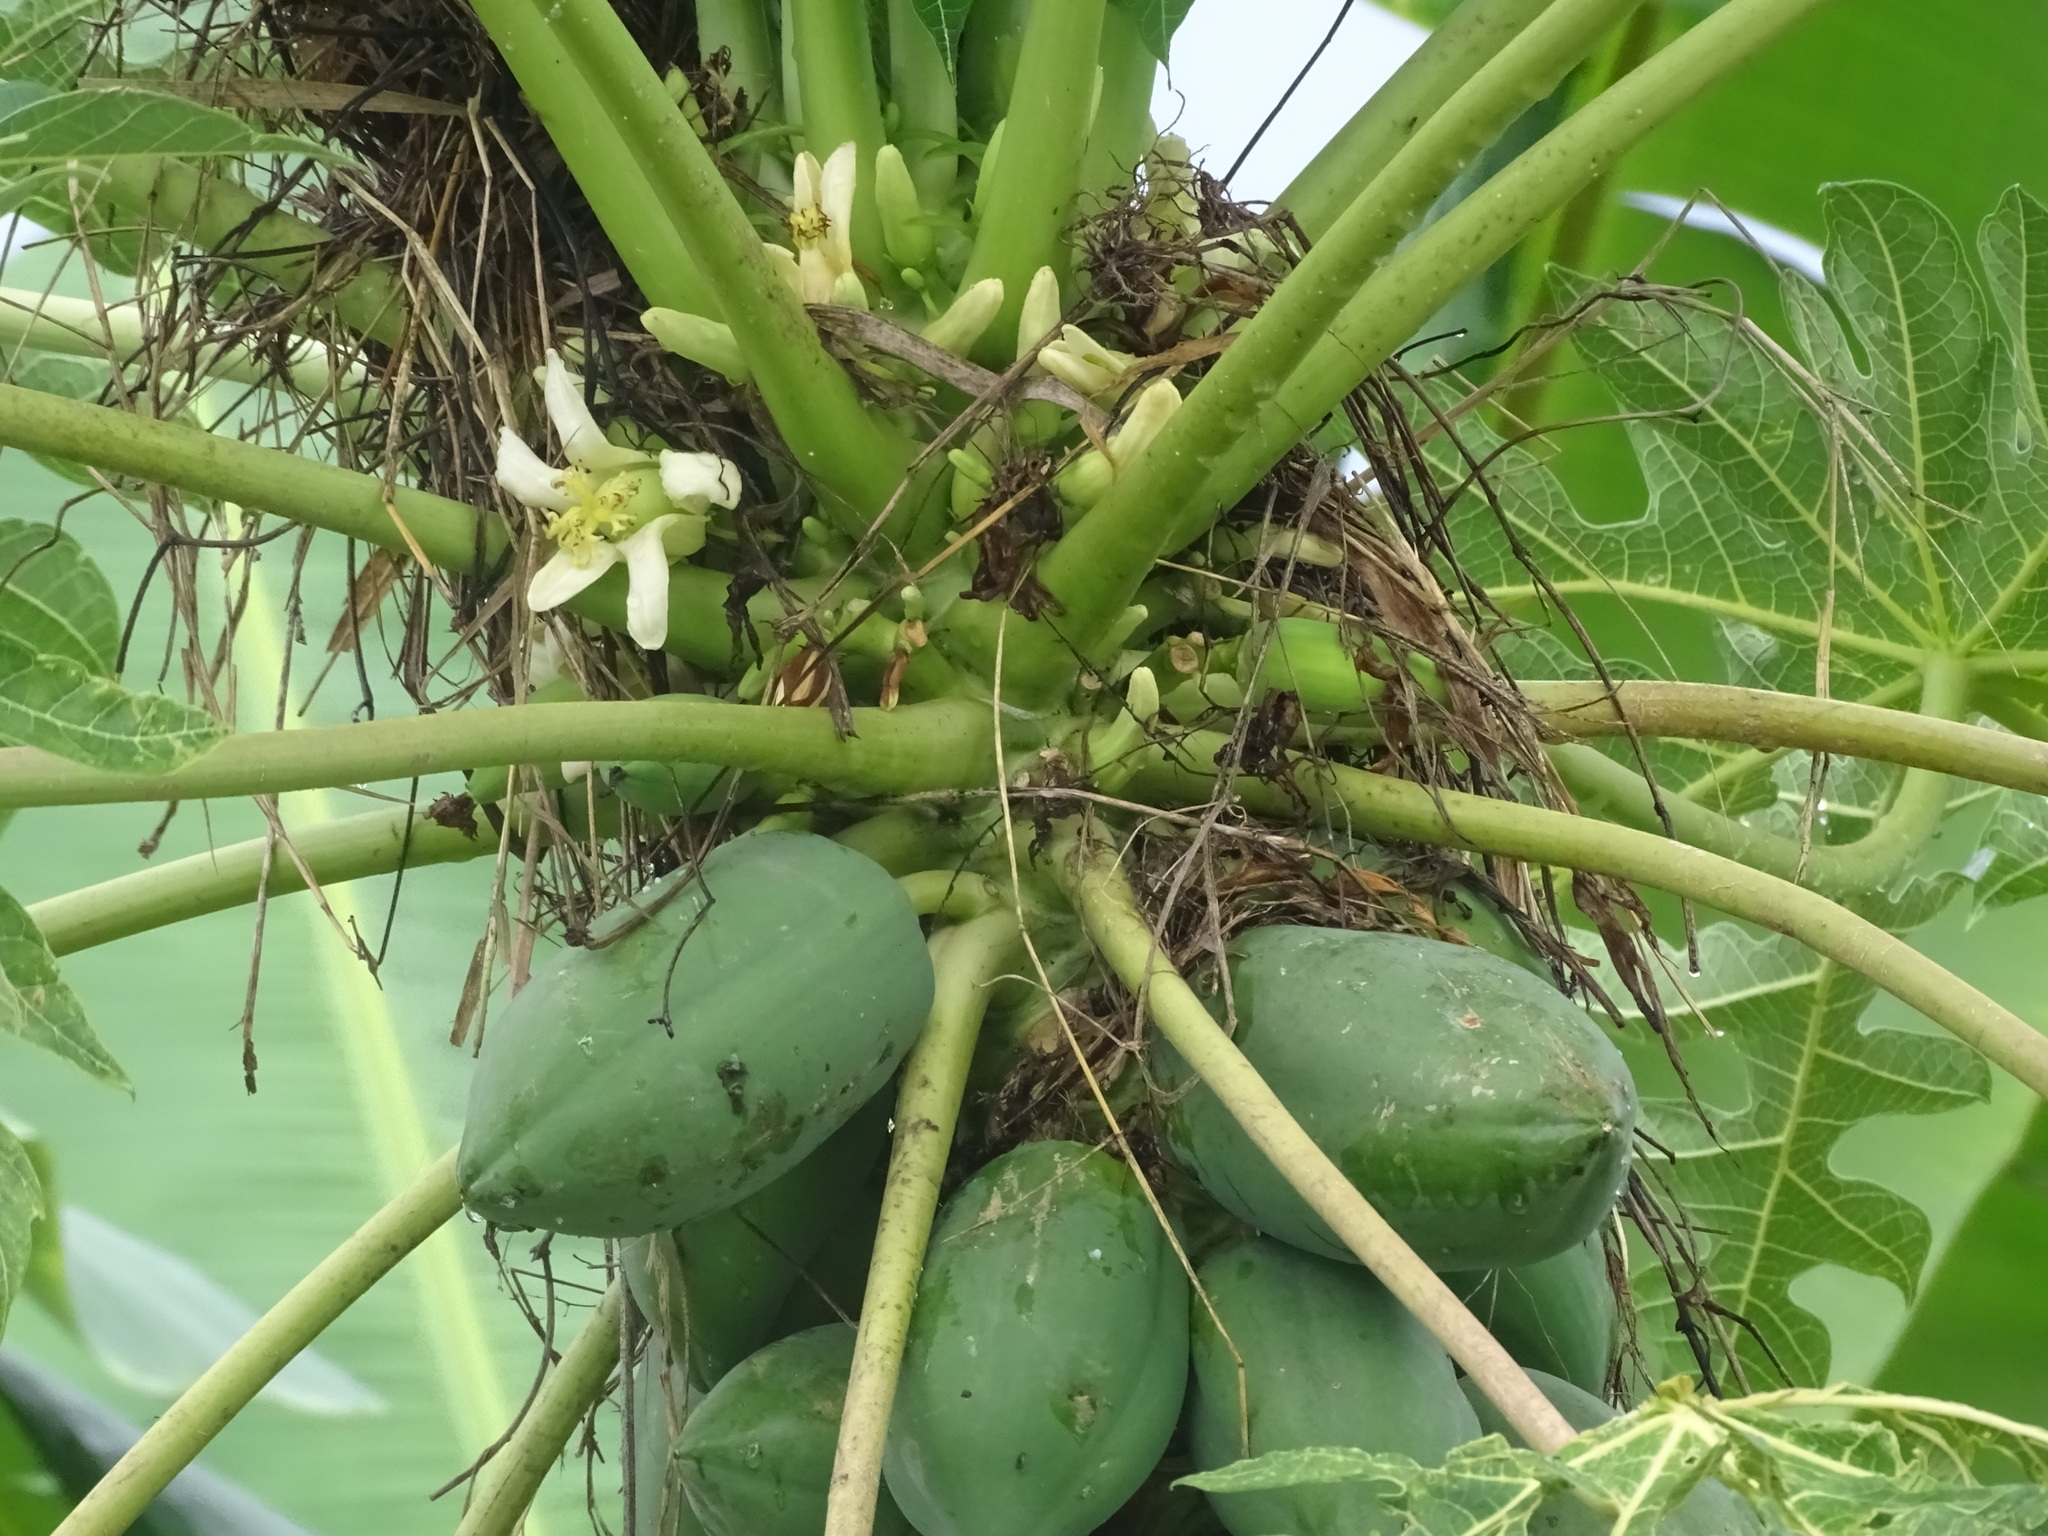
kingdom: Plantae
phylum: Tracheophyta
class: Magnoliopsida
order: Brassicales
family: Caricaceae
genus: Carica
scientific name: Carica papaya
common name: Papaya
